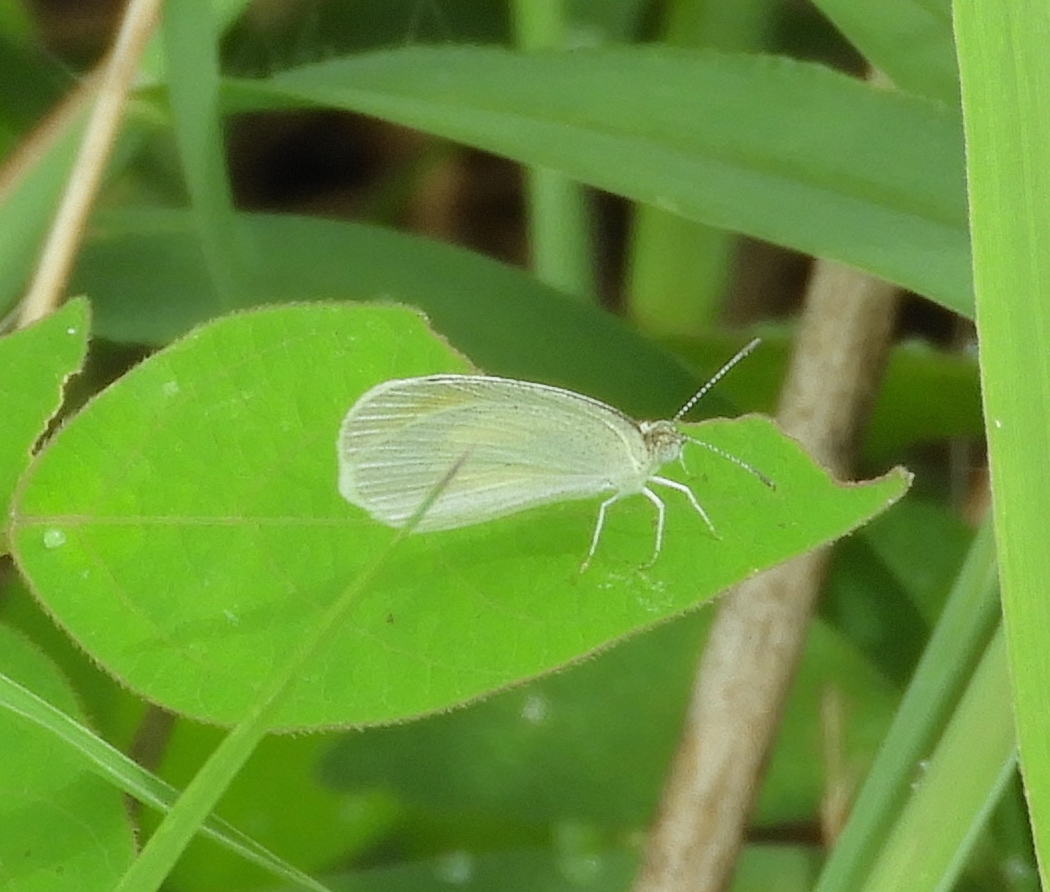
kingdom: Animalia
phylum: Arthropoda
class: Insecta
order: Lepidoptera
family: Pieridae
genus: Eurema
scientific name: Eurema daira
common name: Barred sulphur
